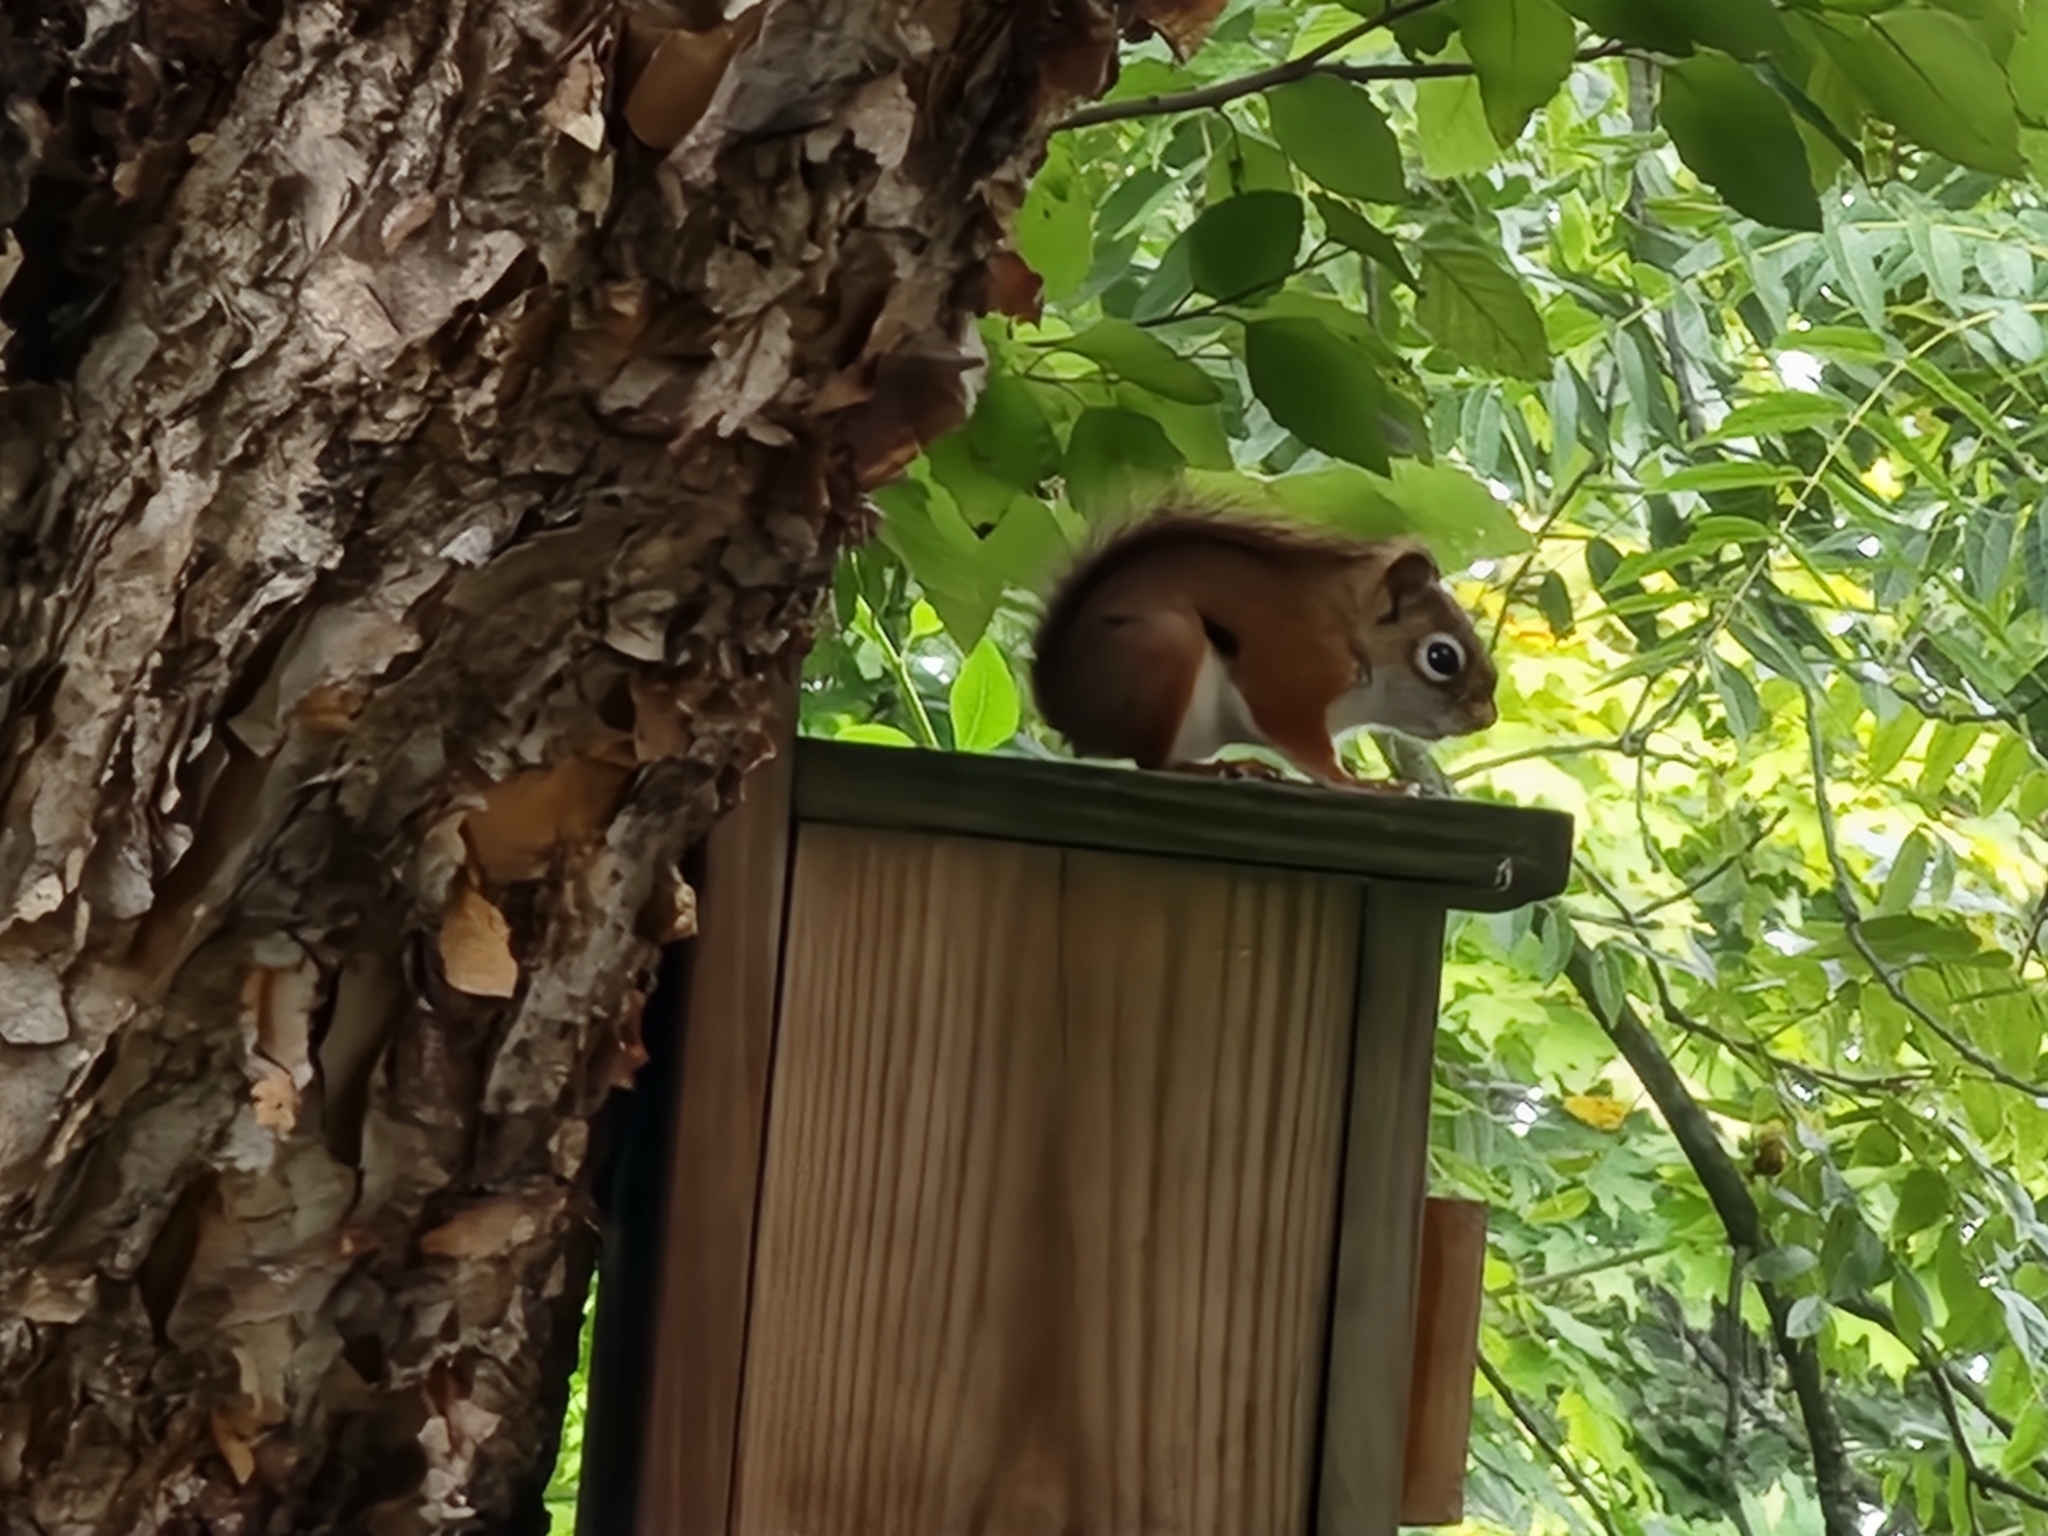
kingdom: Animalia
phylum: Chordata
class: Mammalia
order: Rodentia
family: Sciuridae
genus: Tamiasciurus
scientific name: Tamiasciurus hudsonicus
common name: Red squirrel
